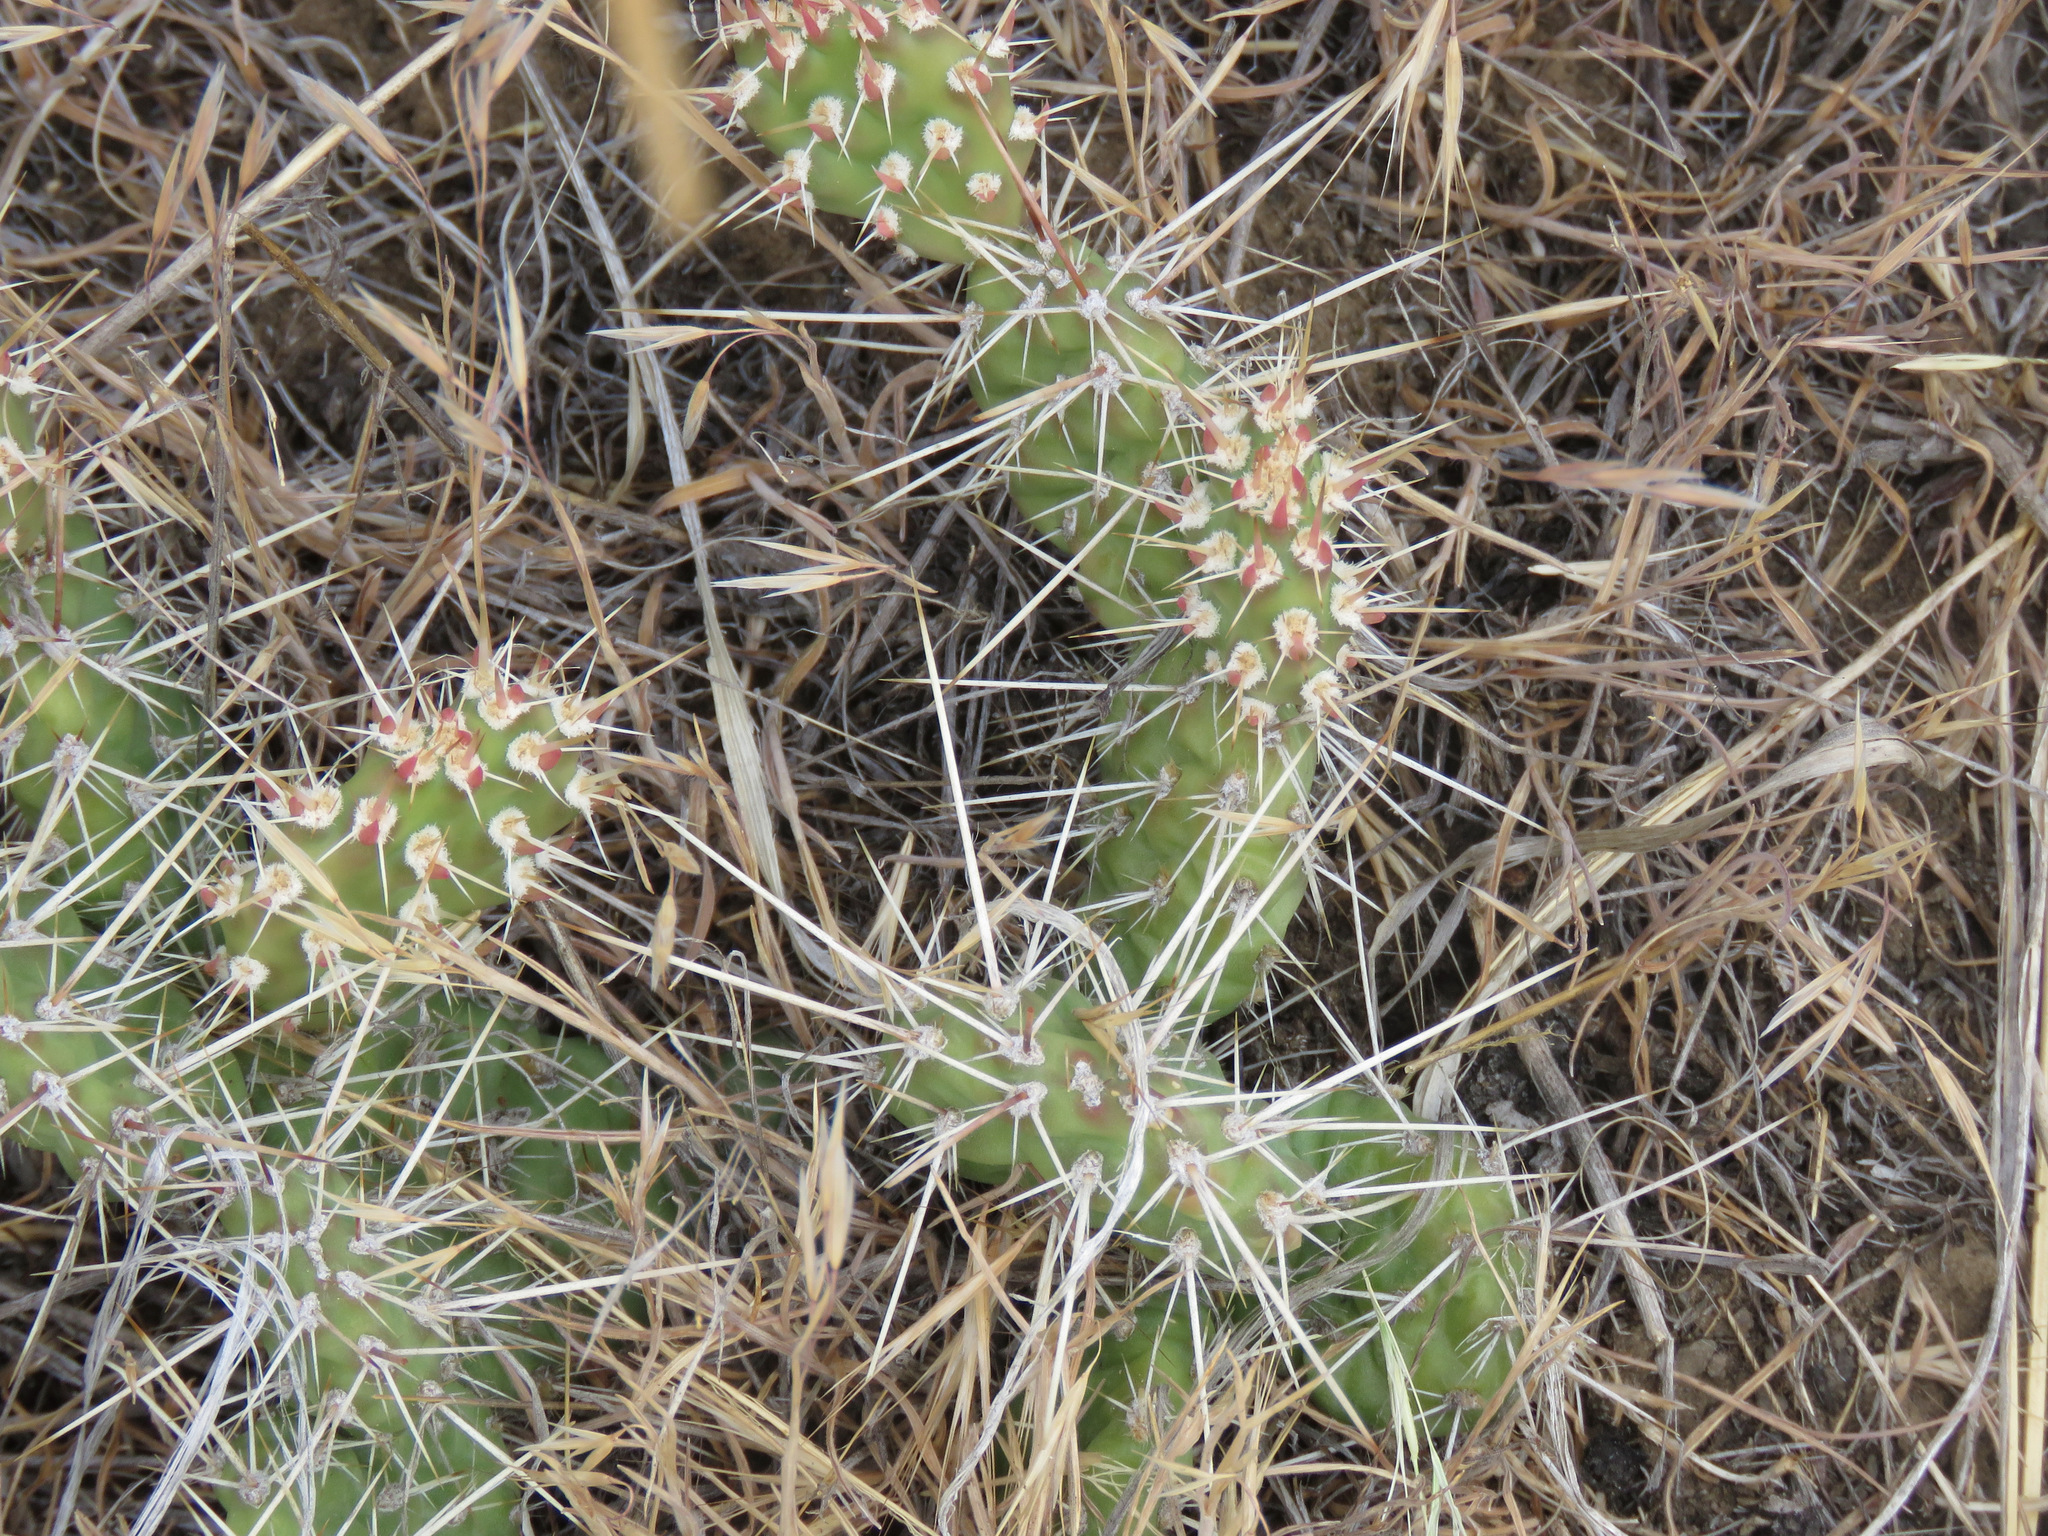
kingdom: Plantae
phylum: Tracheophyta
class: Magnoliopsida
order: Caryophyllales
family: Cactaceae
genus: Opuntia
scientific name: Opuntia fragilis
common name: Brittle cactus
